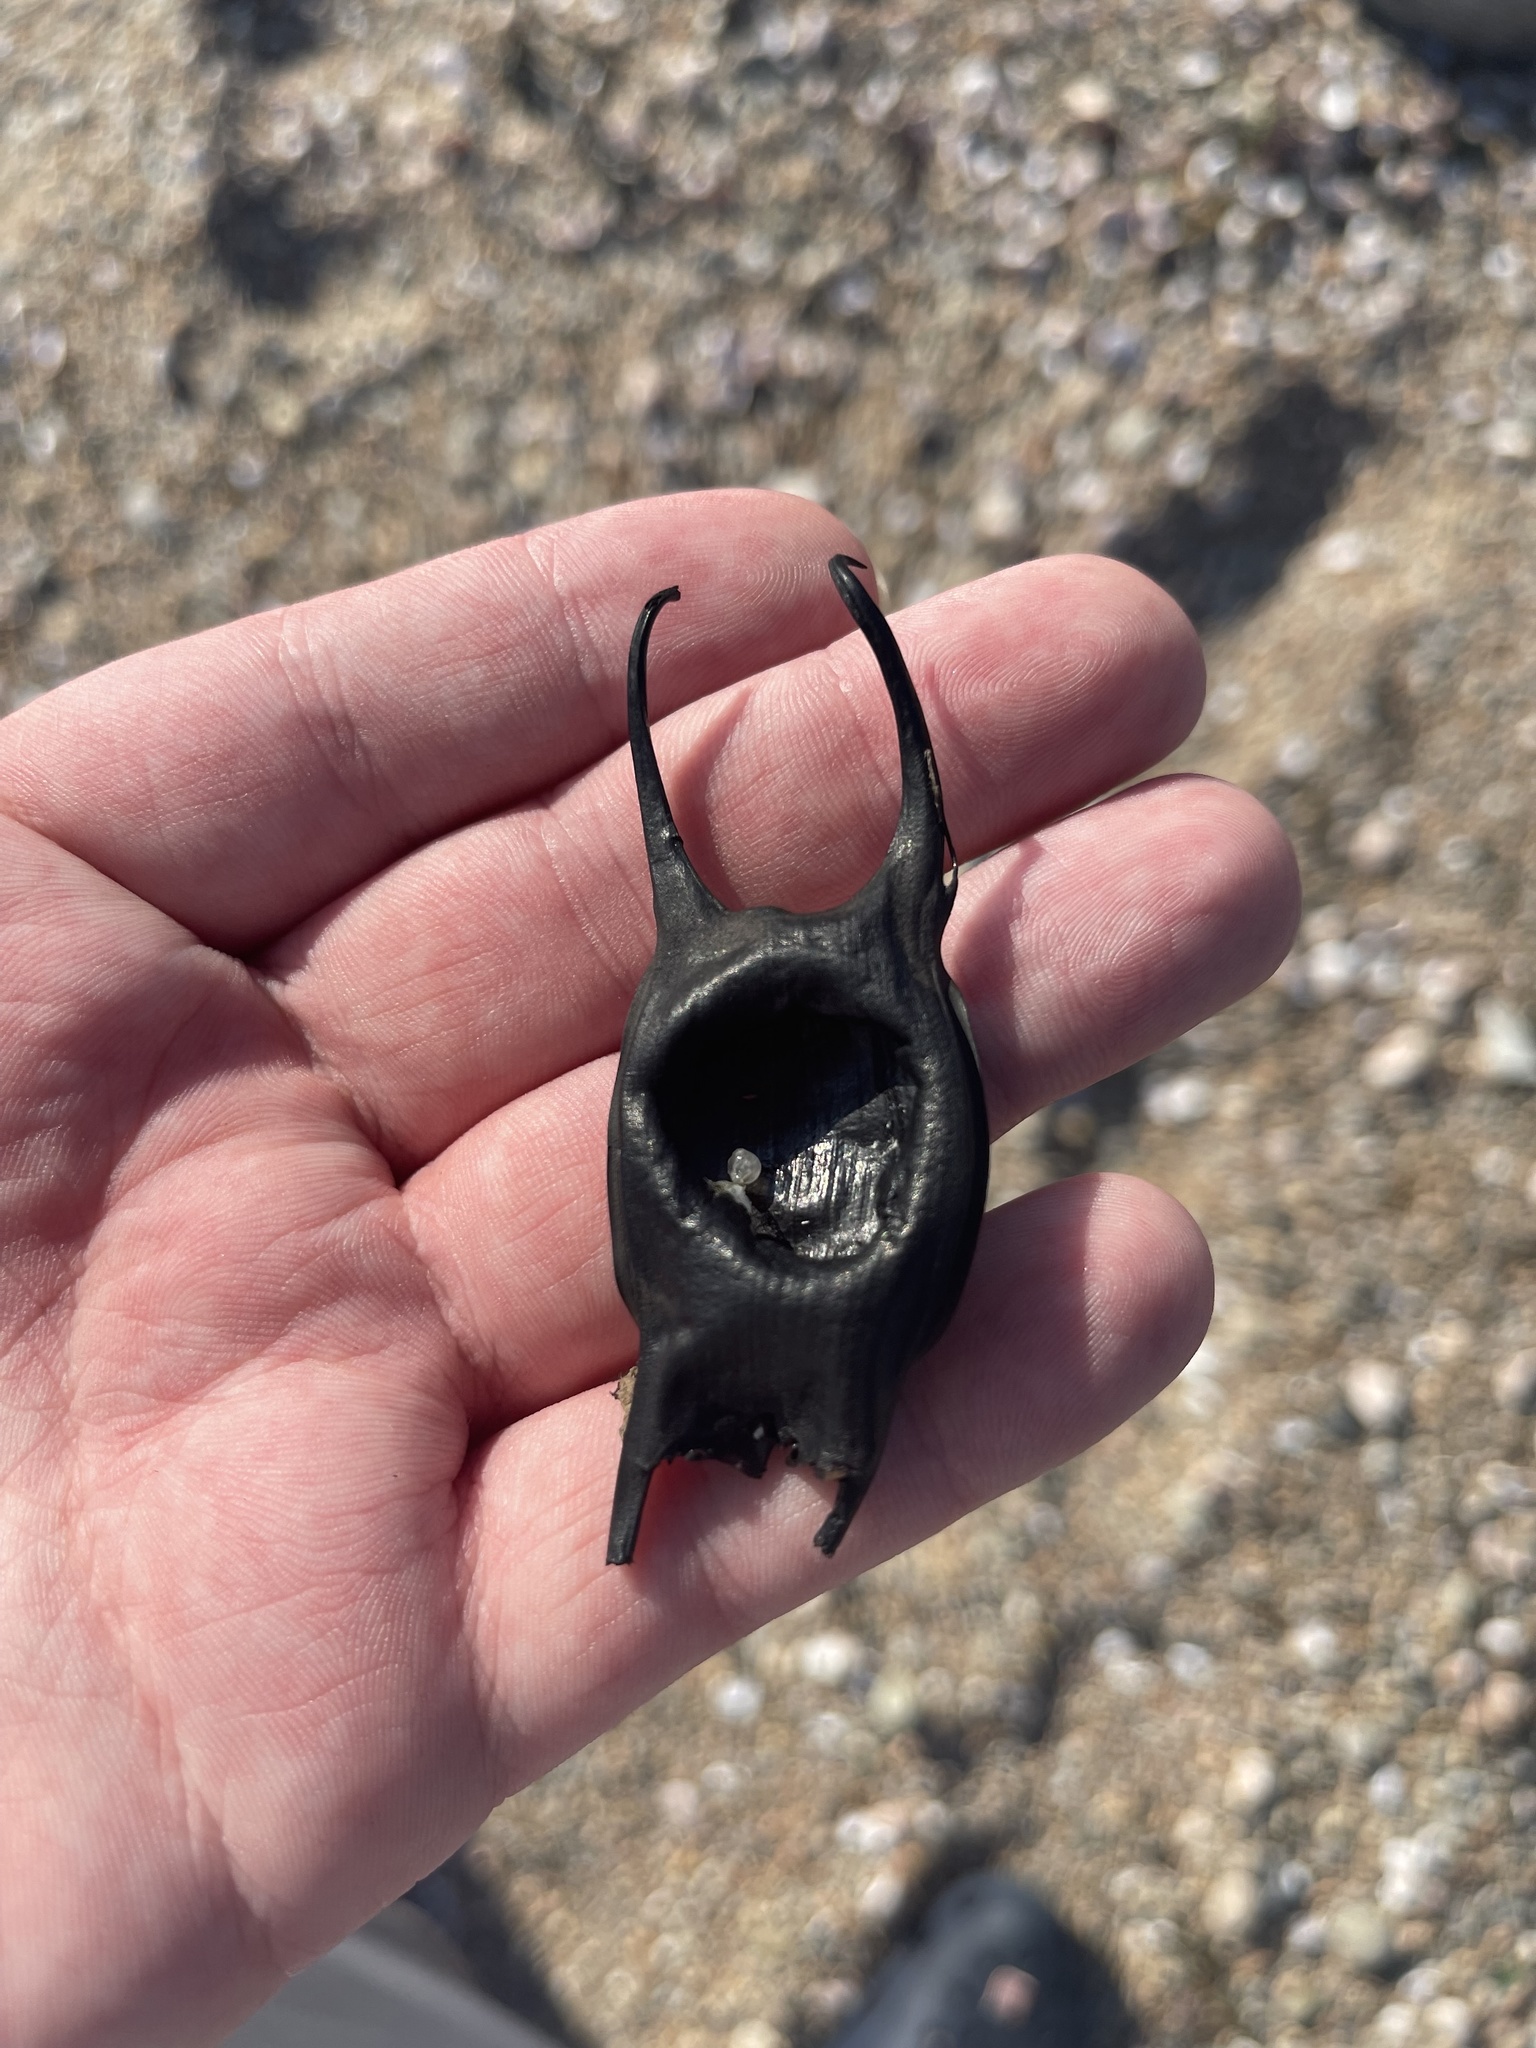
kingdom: Animalia
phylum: Chordata
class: Elasmobranchii
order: Rajiformes
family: Rajidae
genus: Leucoraja
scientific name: Leucoraja garmani
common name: Rosette skate
